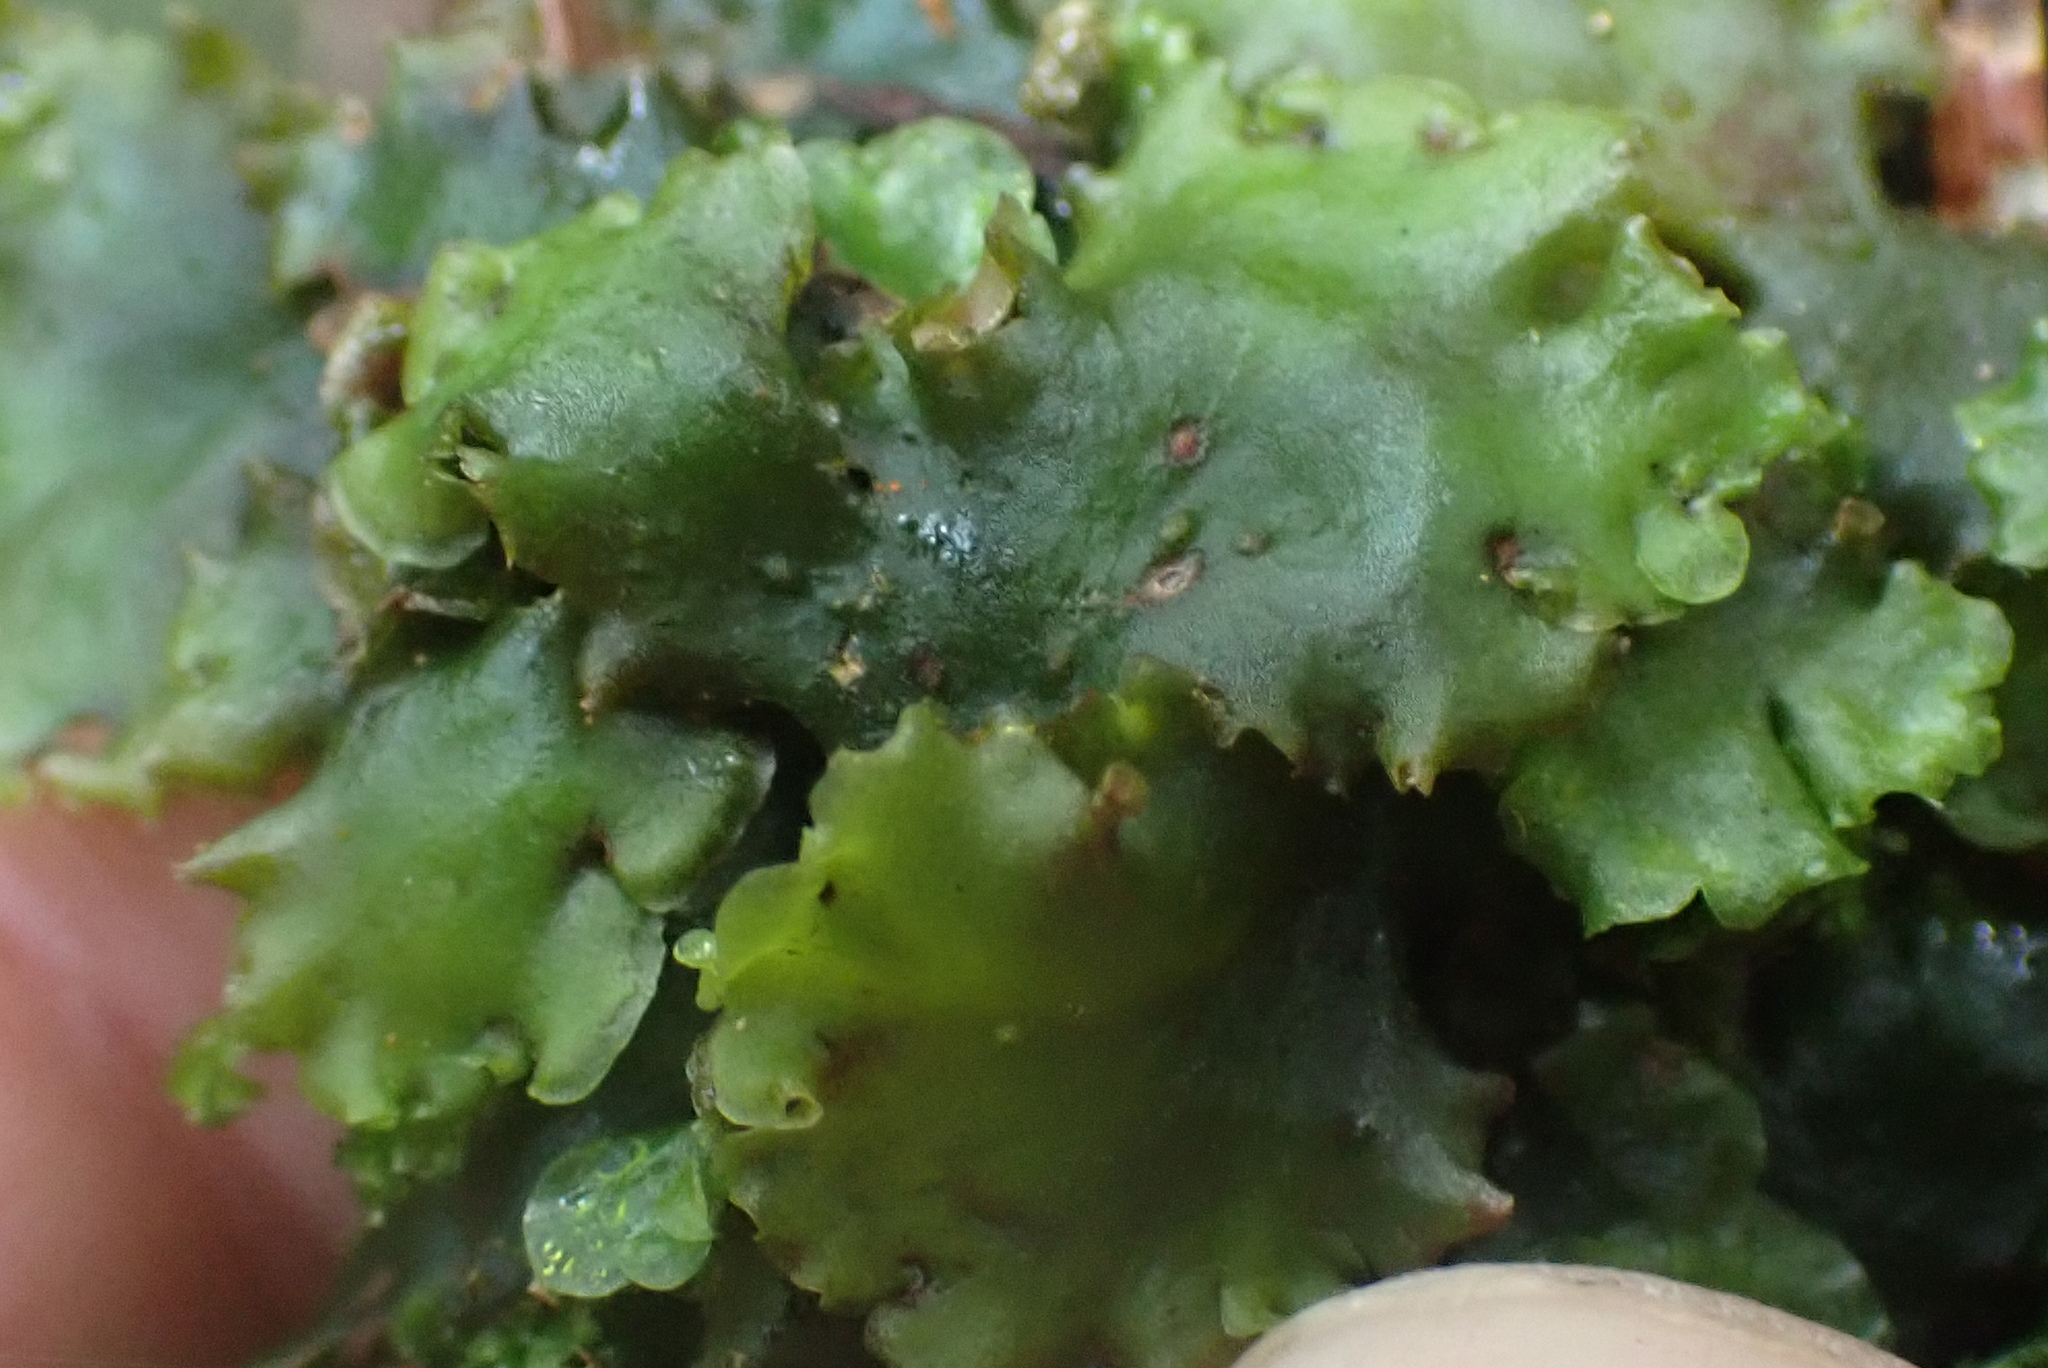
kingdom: Plantae
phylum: Marchantiophyta
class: Jungermanniopsida
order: Pelliales
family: Pelliaceae
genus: Pellia
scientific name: Pellia neesiana
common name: Nees  pellia
